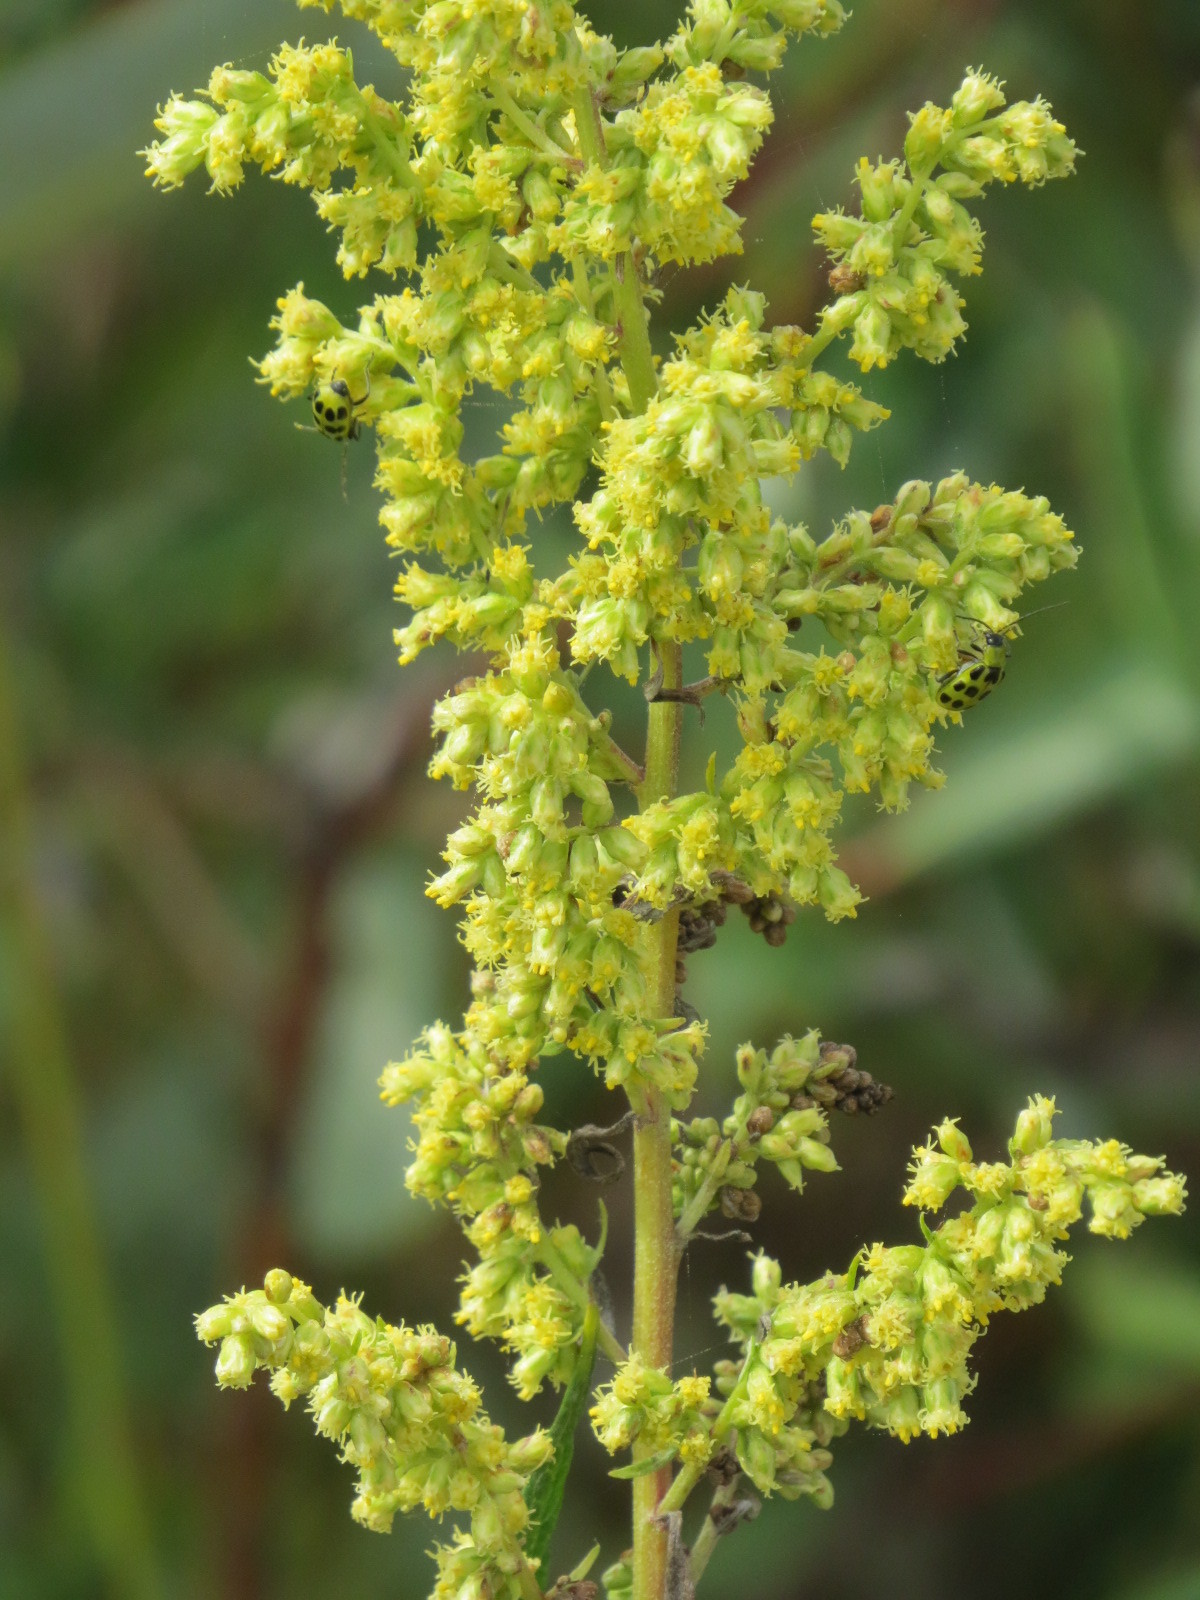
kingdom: Plantae
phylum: Tracheophyta
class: Magnoliopsida
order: Asterales
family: Asteraceae
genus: Artemisia
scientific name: Artemisia douglasiana
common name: Northwest mugwort
